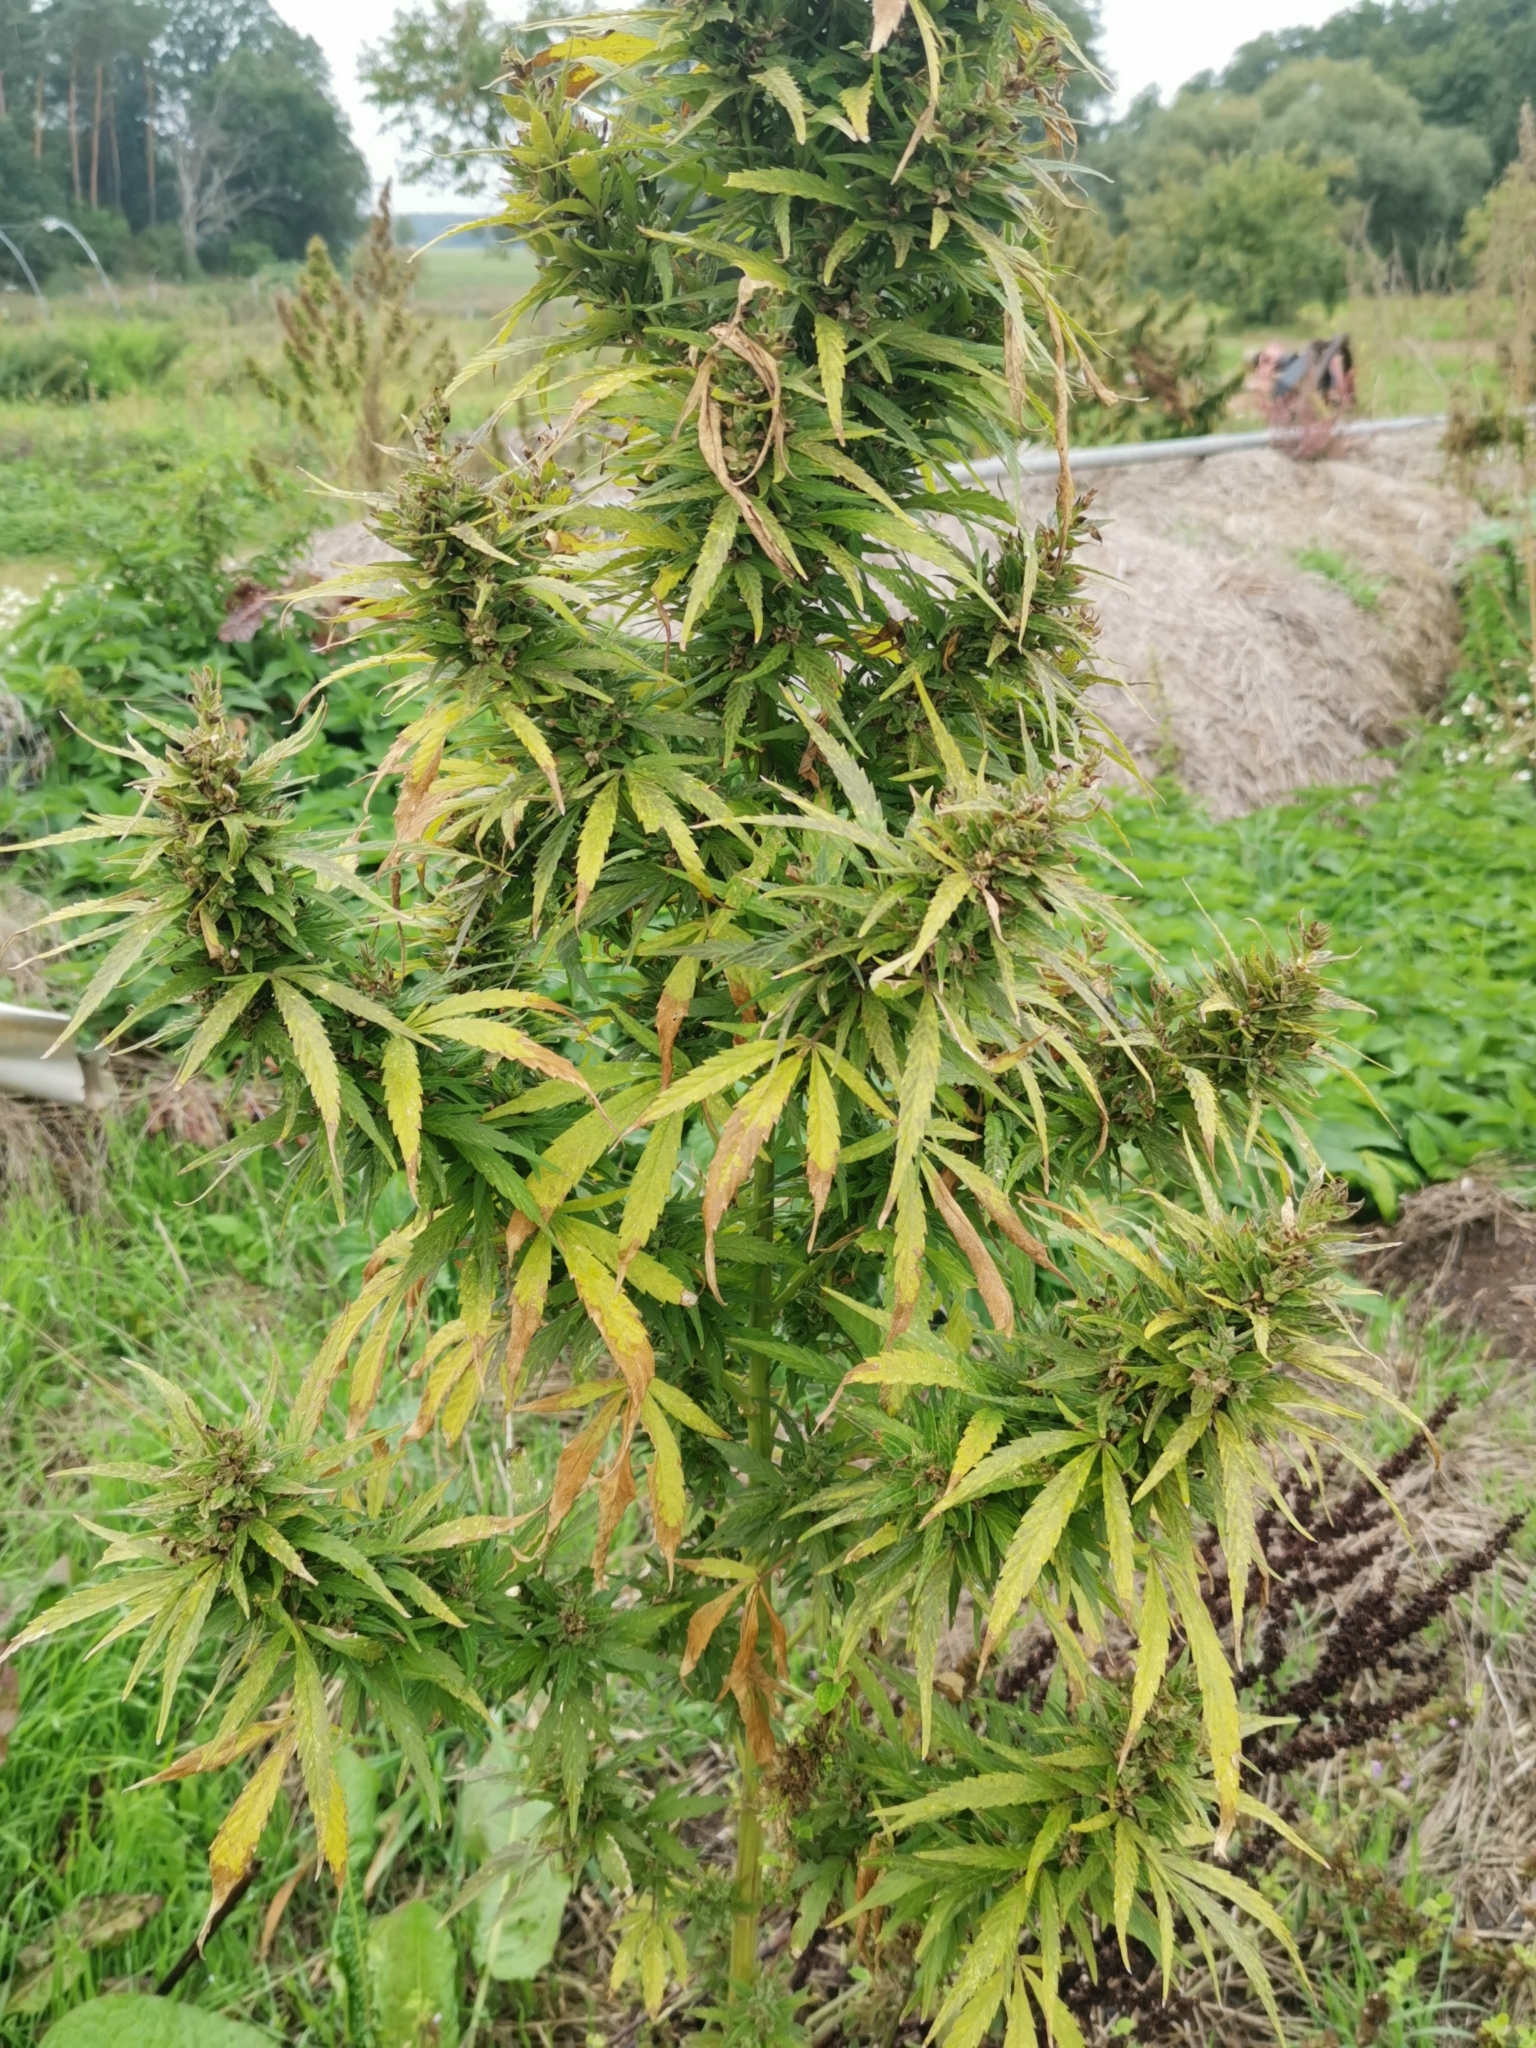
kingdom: Plantae
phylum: Tracheophyta
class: Magnoliopsida
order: Rosales
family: Cannabaceae
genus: Cannabis
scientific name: Cannabis sativa
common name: Hemp
